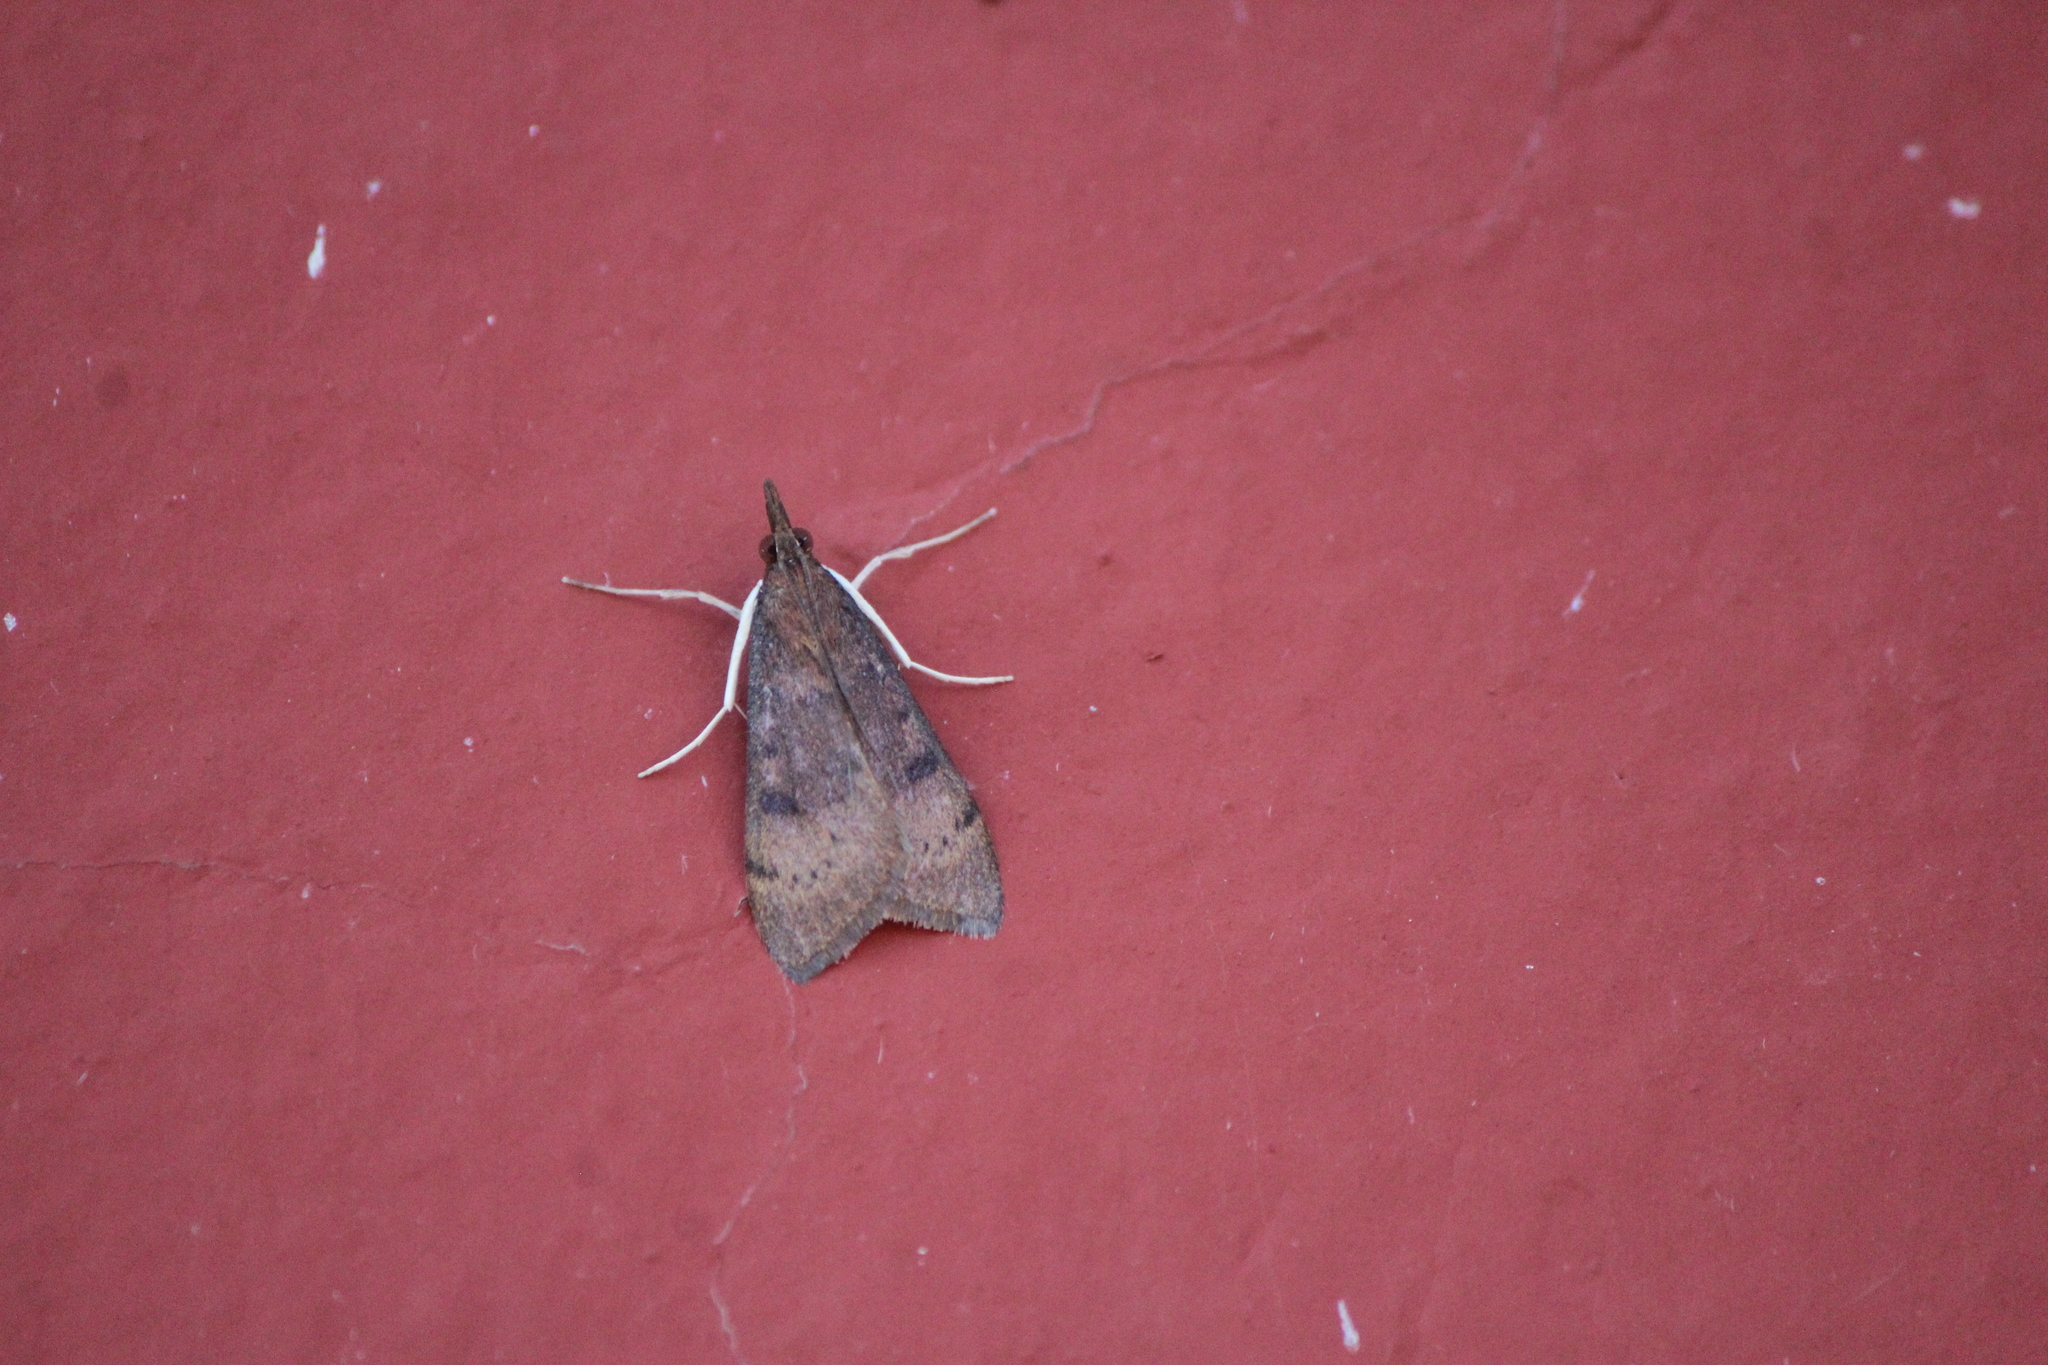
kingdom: Animalia
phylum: Arthropoda
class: Insecta
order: Lepidoptera
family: Crambidae
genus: Uresiphita
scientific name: Uresiphita reversalis
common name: Genista broom moth
